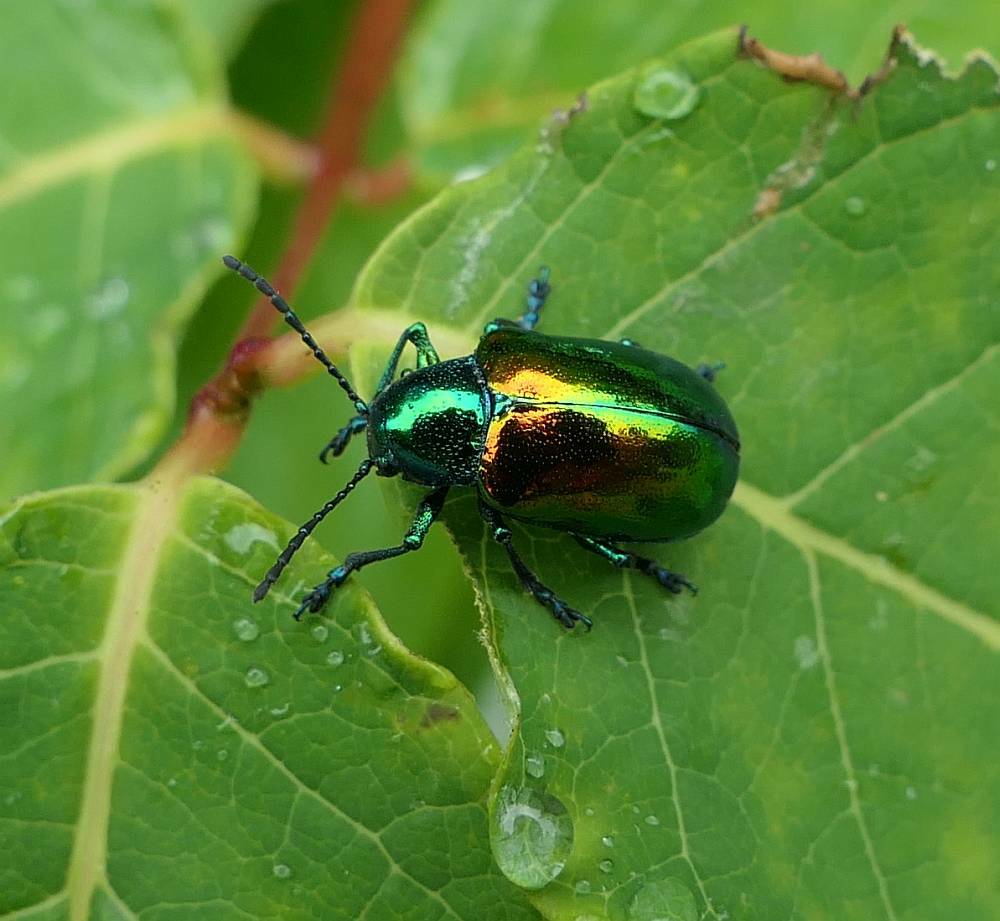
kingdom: Animalia
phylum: Arthropoda
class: Insecta
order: Coleoptera
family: Chrysomelidae
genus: Chrysochus
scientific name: Chrysochus auratus
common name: Dogbane leaf beetle
